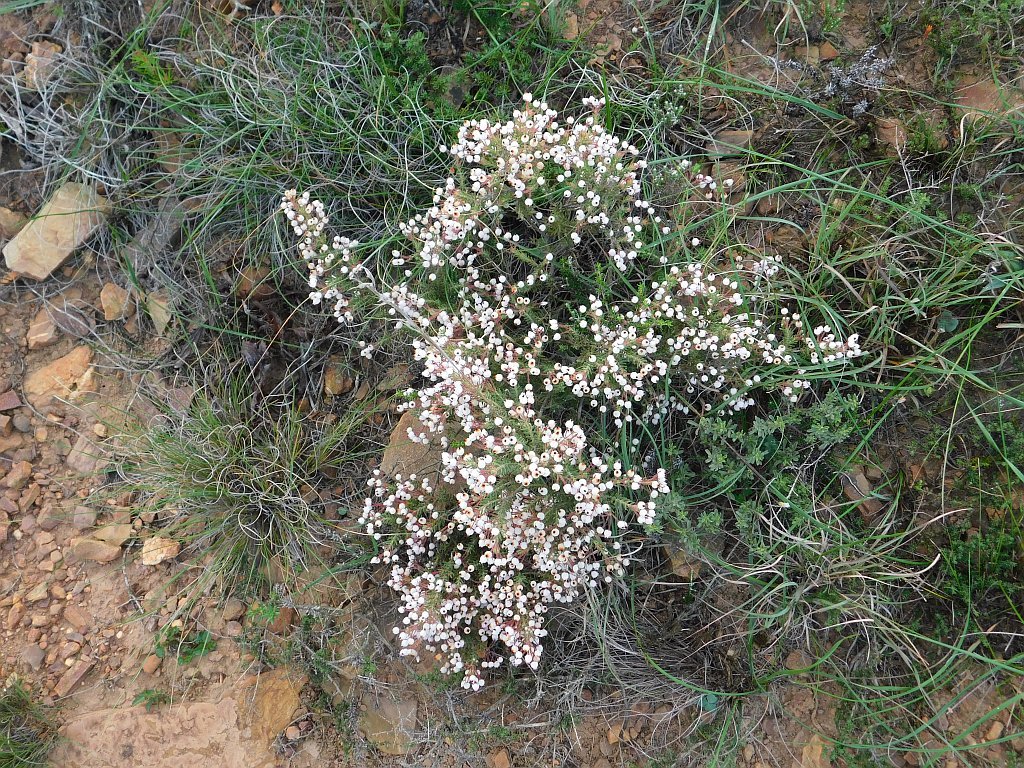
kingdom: Plantae
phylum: Tracheophyta
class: Magnoliopsida
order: Ericales
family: Ericaceae
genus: Erica
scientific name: Erica hirta
